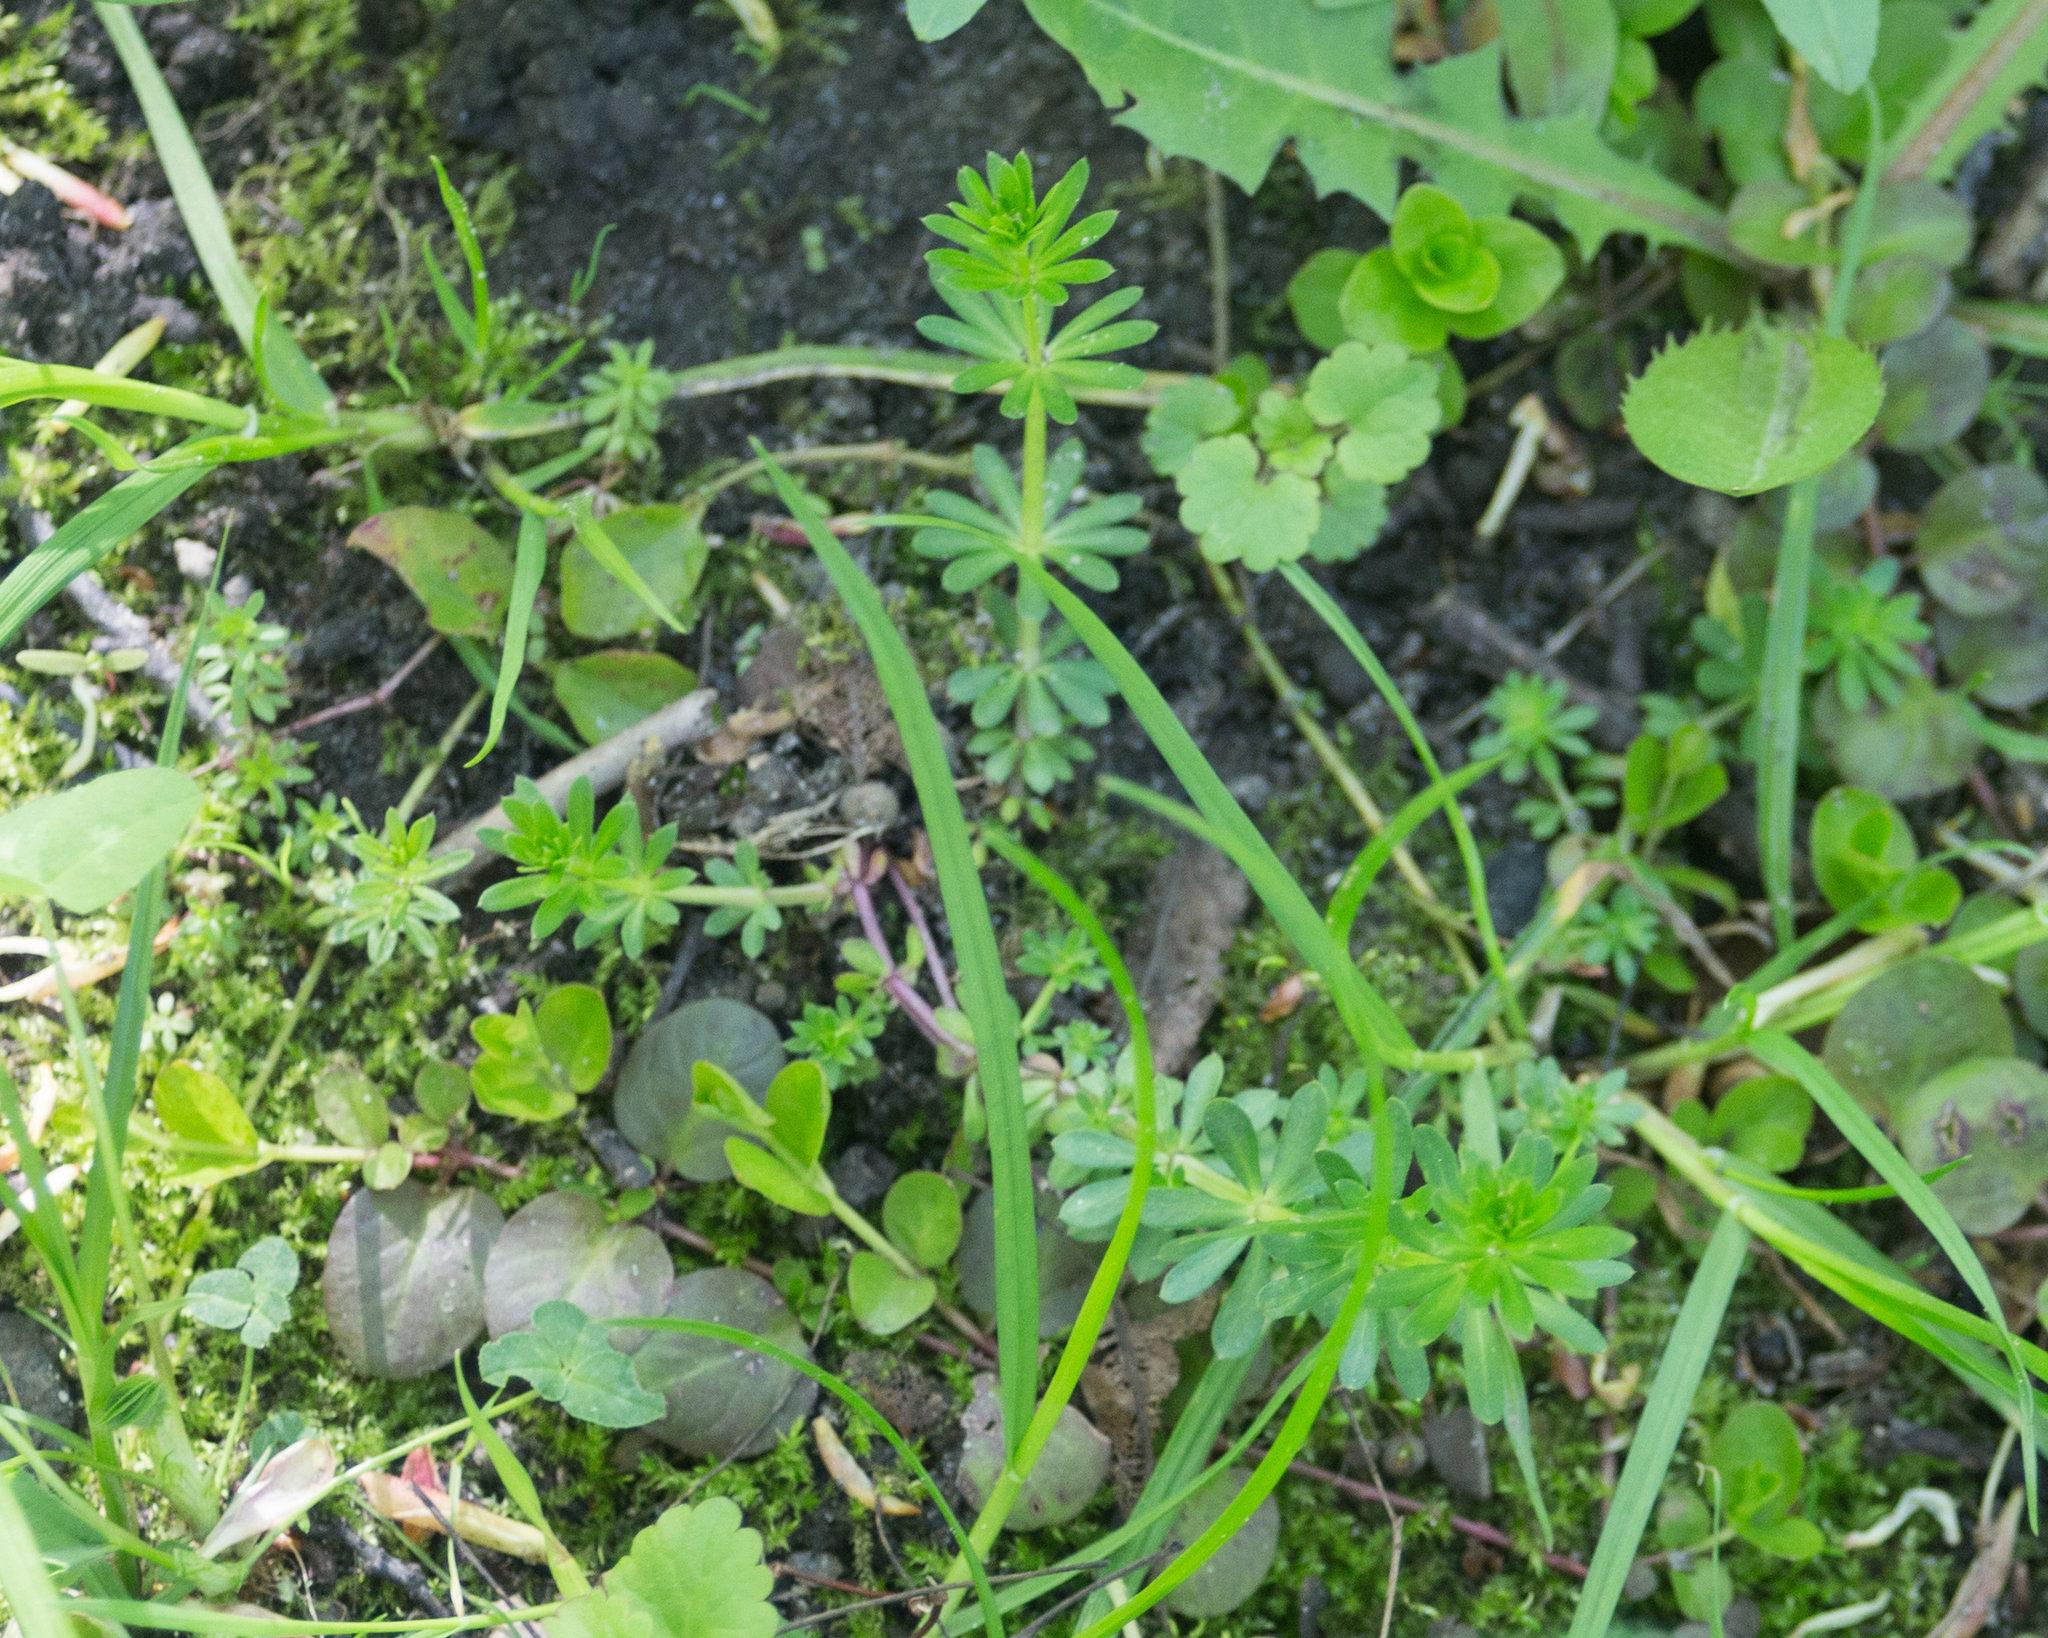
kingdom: Plantae
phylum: Tracheophyta
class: Magnoliopsida
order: Gentianales
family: Rubiaceae
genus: Galium
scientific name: Galium mollugo
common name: Hedge bedstraw
